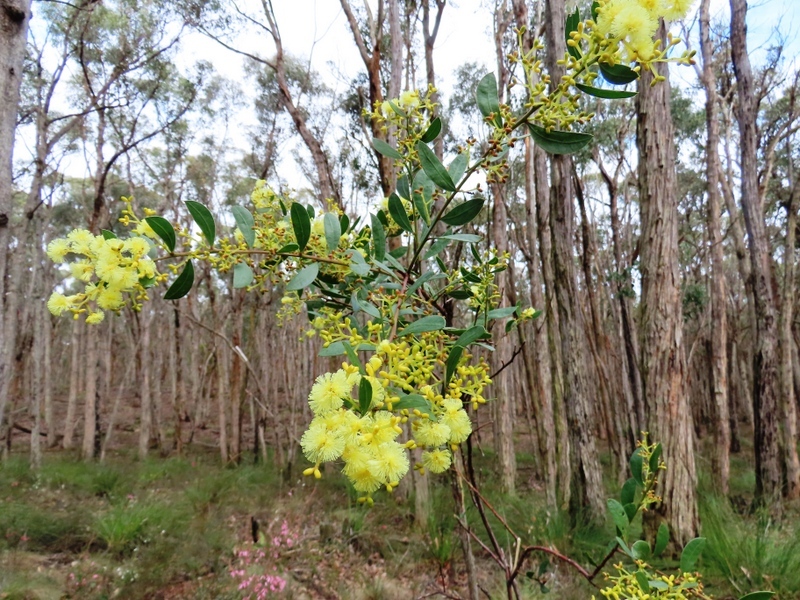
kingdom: Plantae
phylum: Tracheophyta
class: Magnoliopsida
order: Fabales
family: Fabaceae
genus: Acacia
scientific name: Acacia myrtifolia
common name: Myrtle wattle
